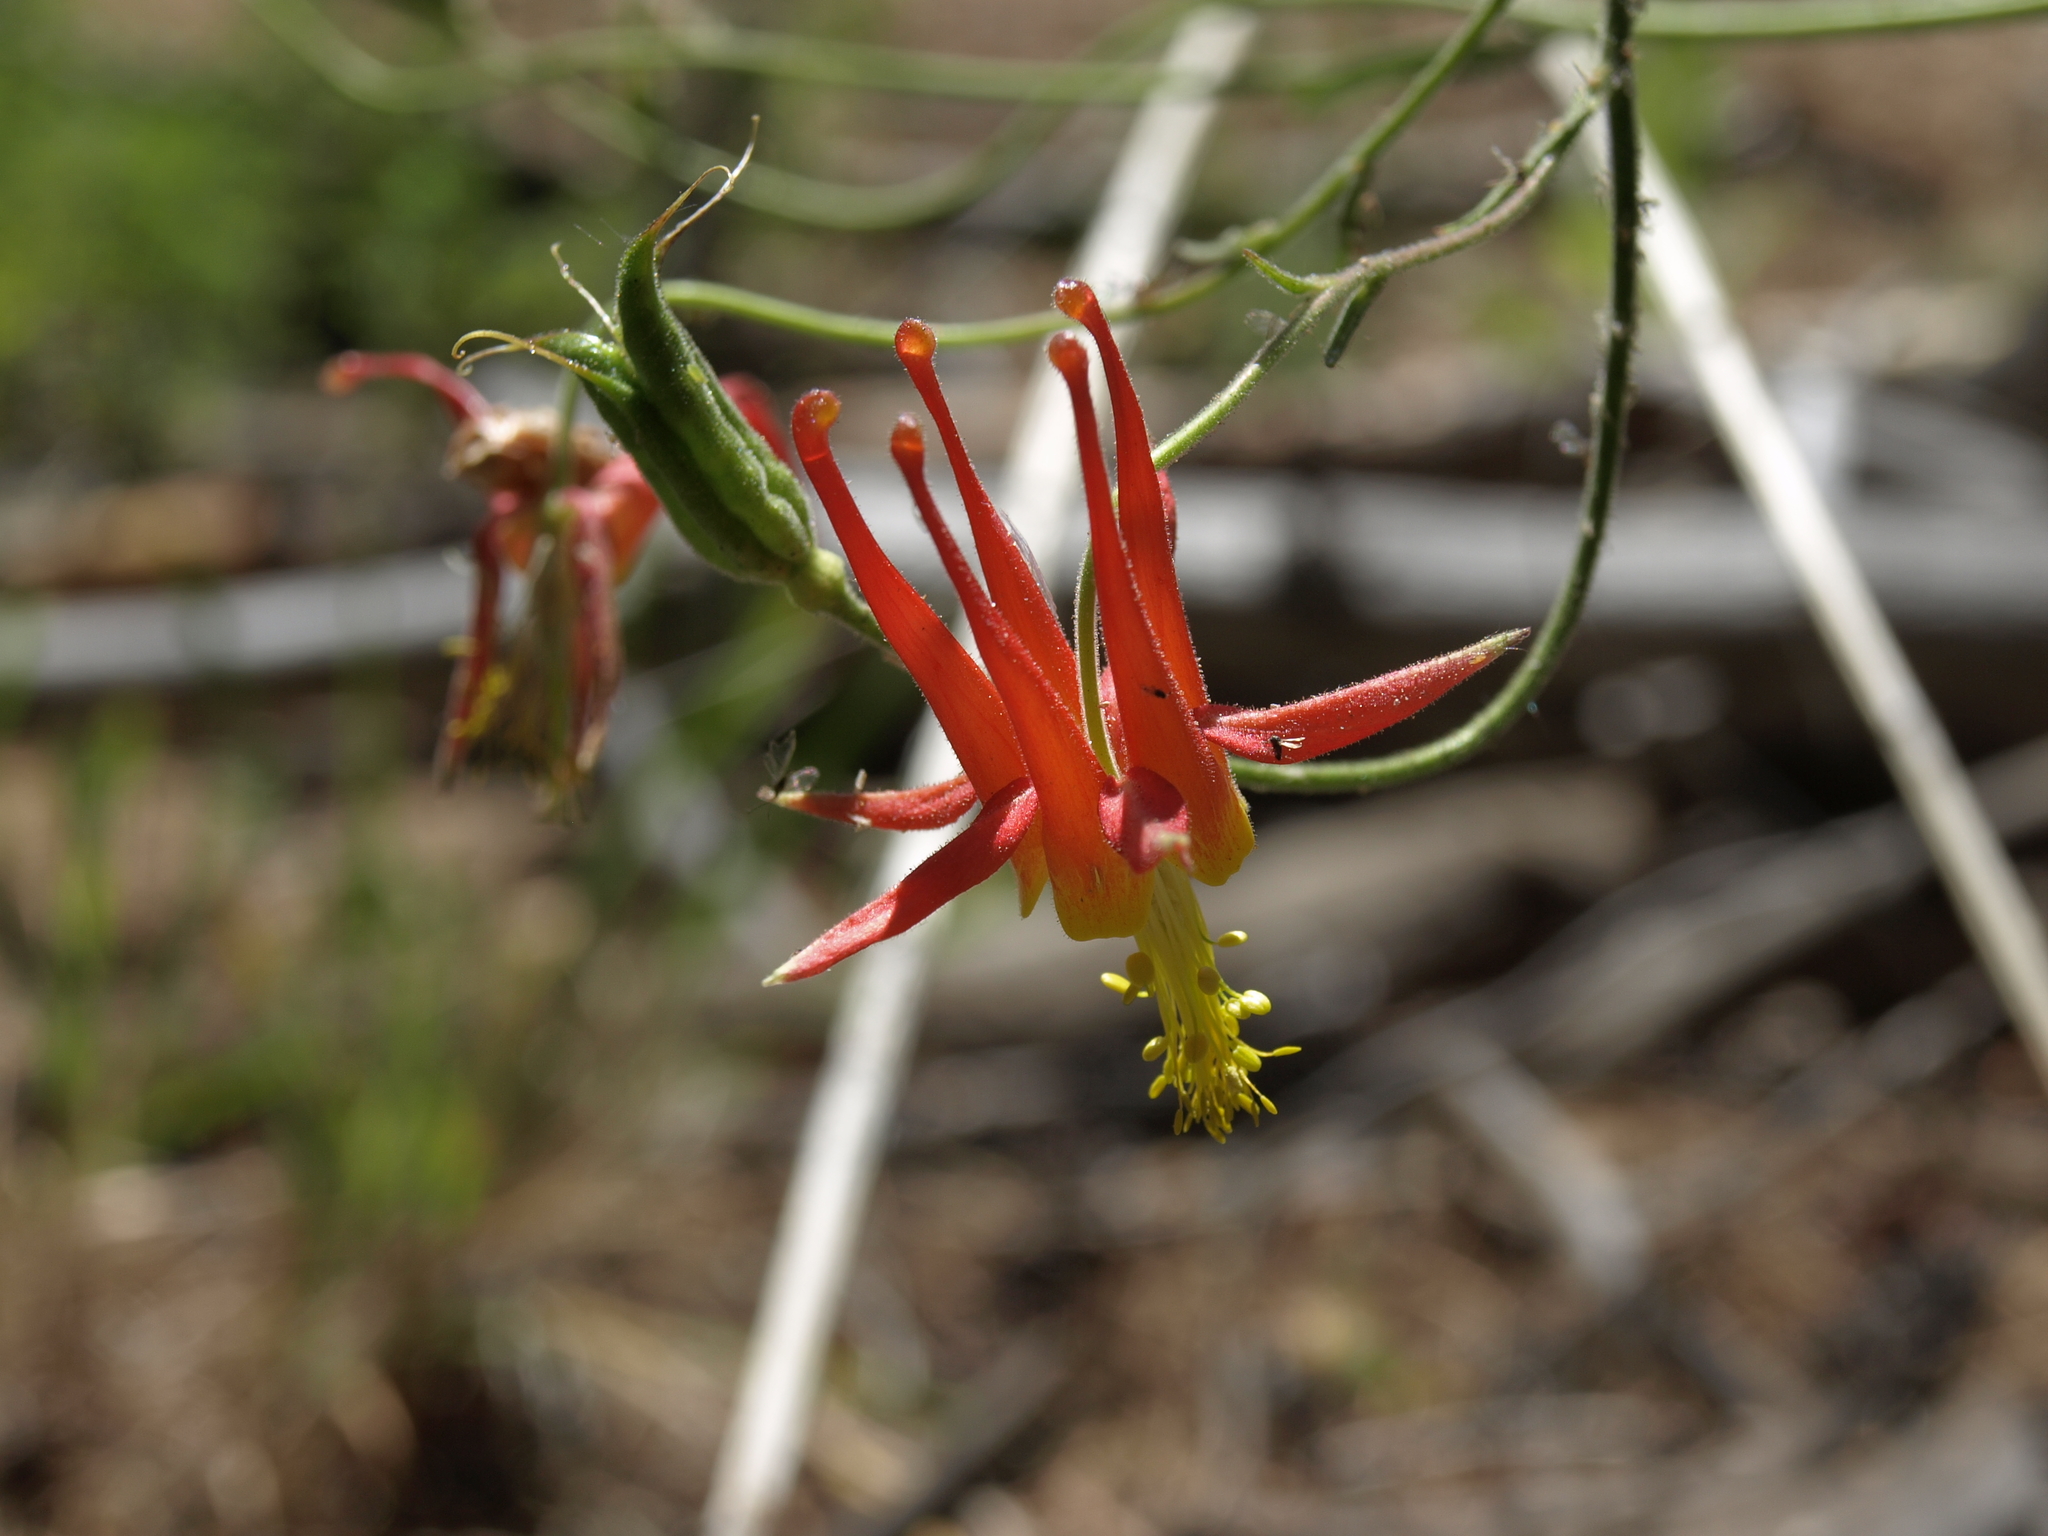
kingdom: Plantae
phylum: Tracheophyta
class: Magnoliopsida
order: Ranunculales
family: Ranunculaceae
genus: Aquilegia
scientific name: Aquilegia formosa
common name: Sitka columbine
